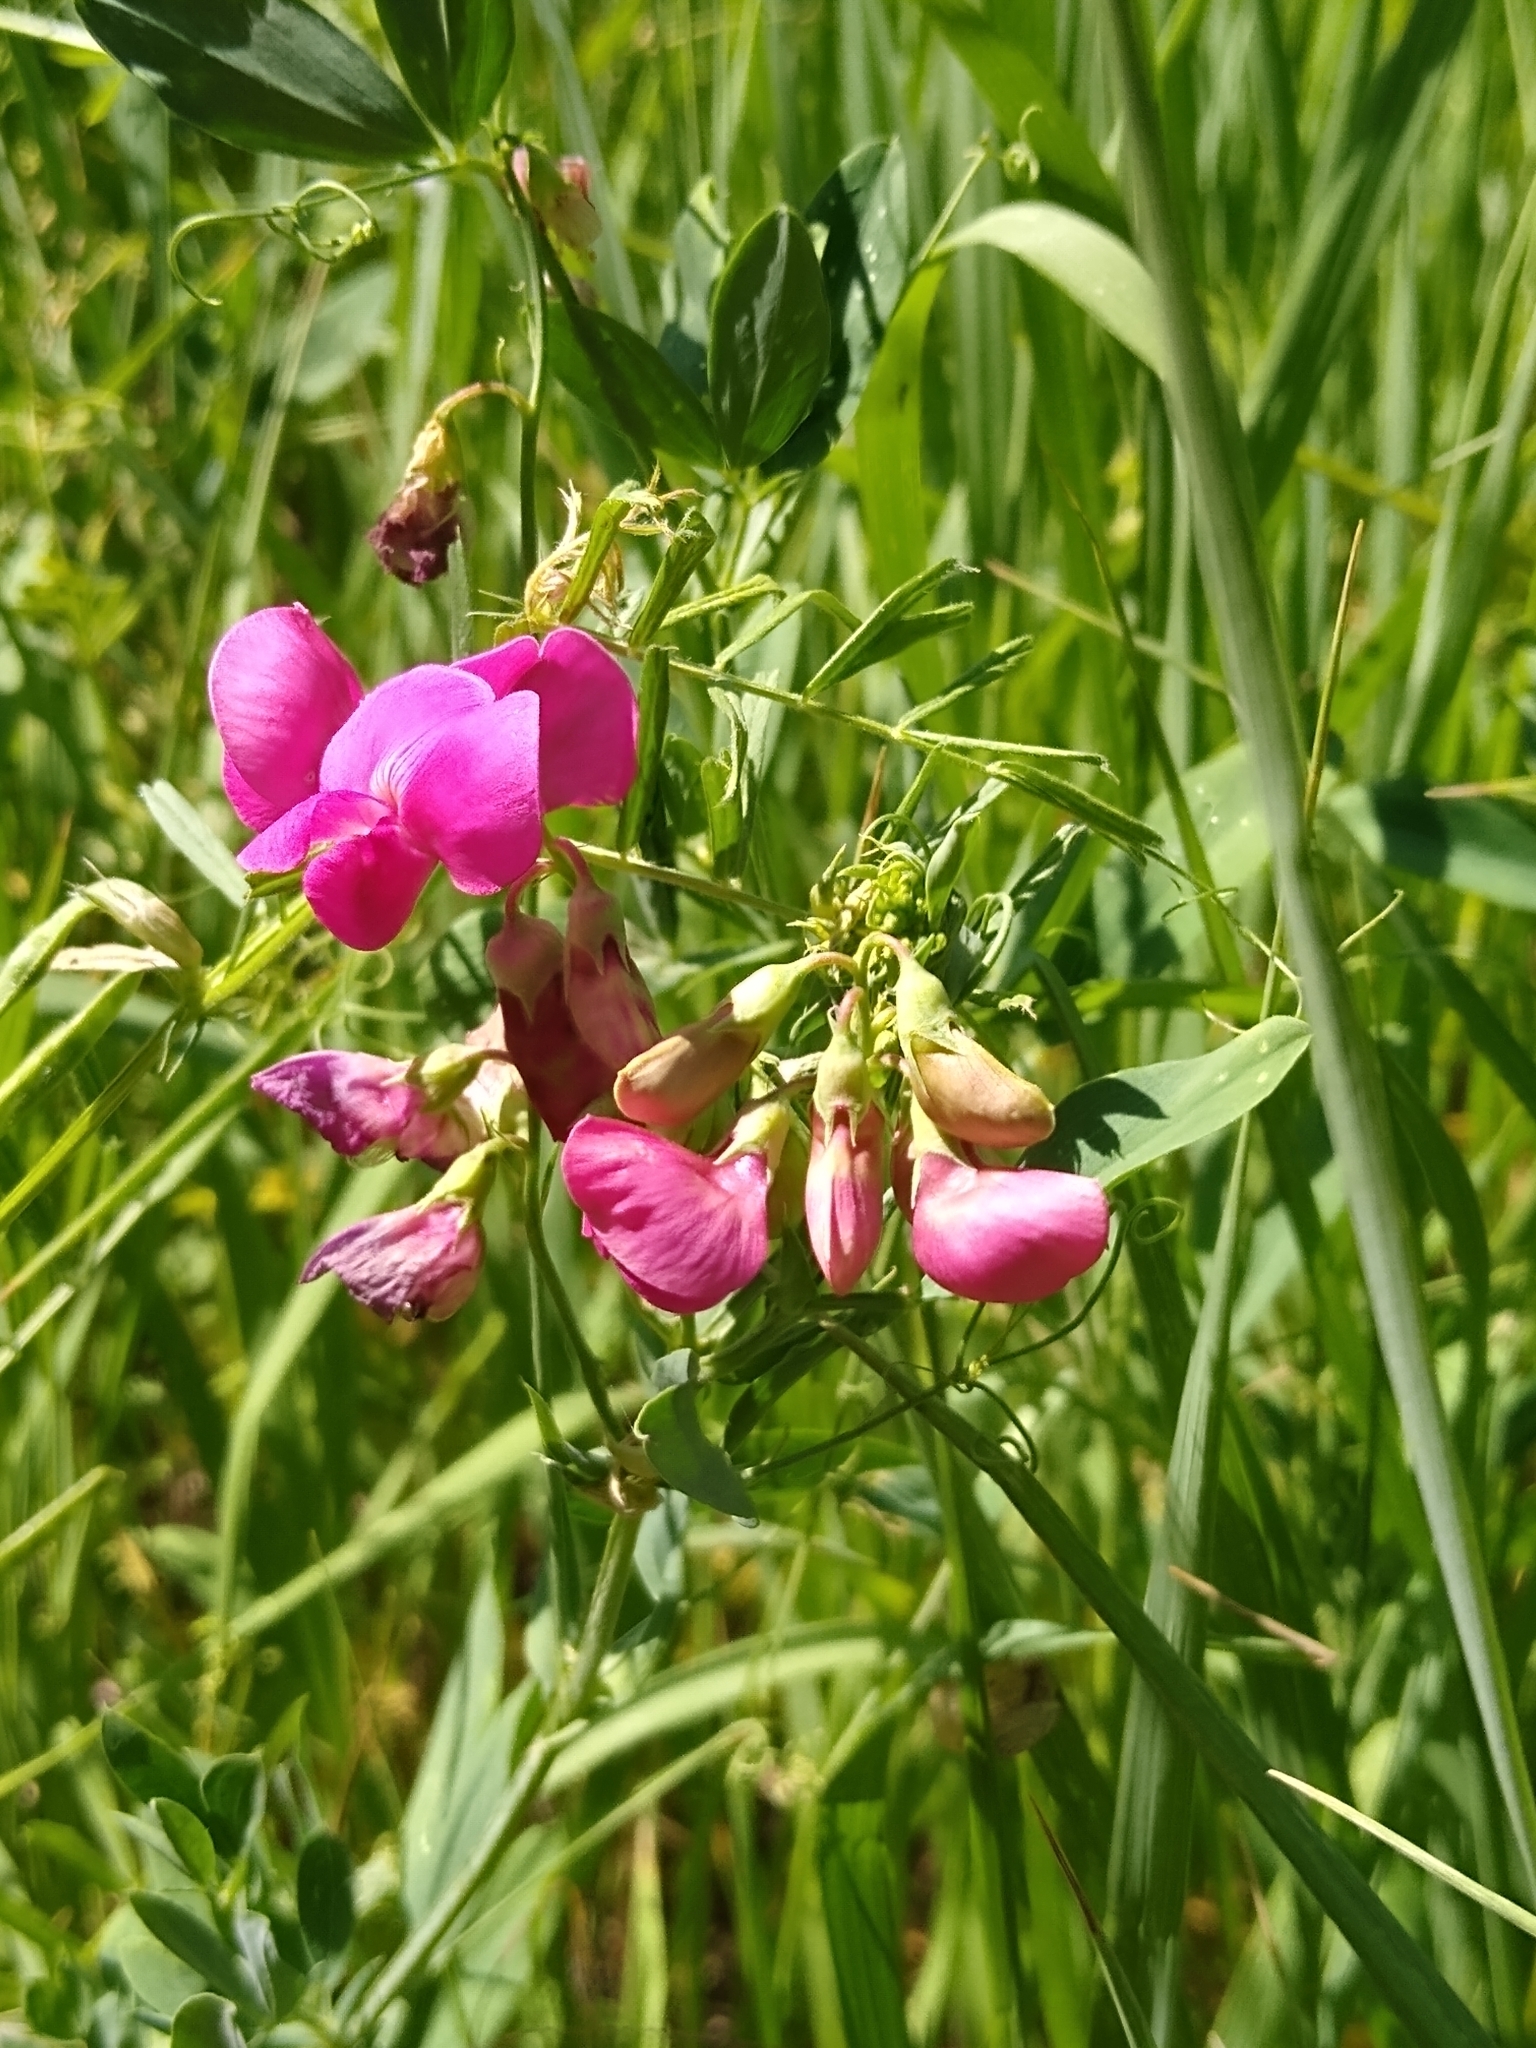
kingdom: Plantae
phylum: Tracheophyta
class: Magnoliopsida
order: Fabales
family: Fabaceae
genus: Lathyrus
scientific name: Lathyrus tuberosus
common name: Tuberous pea
